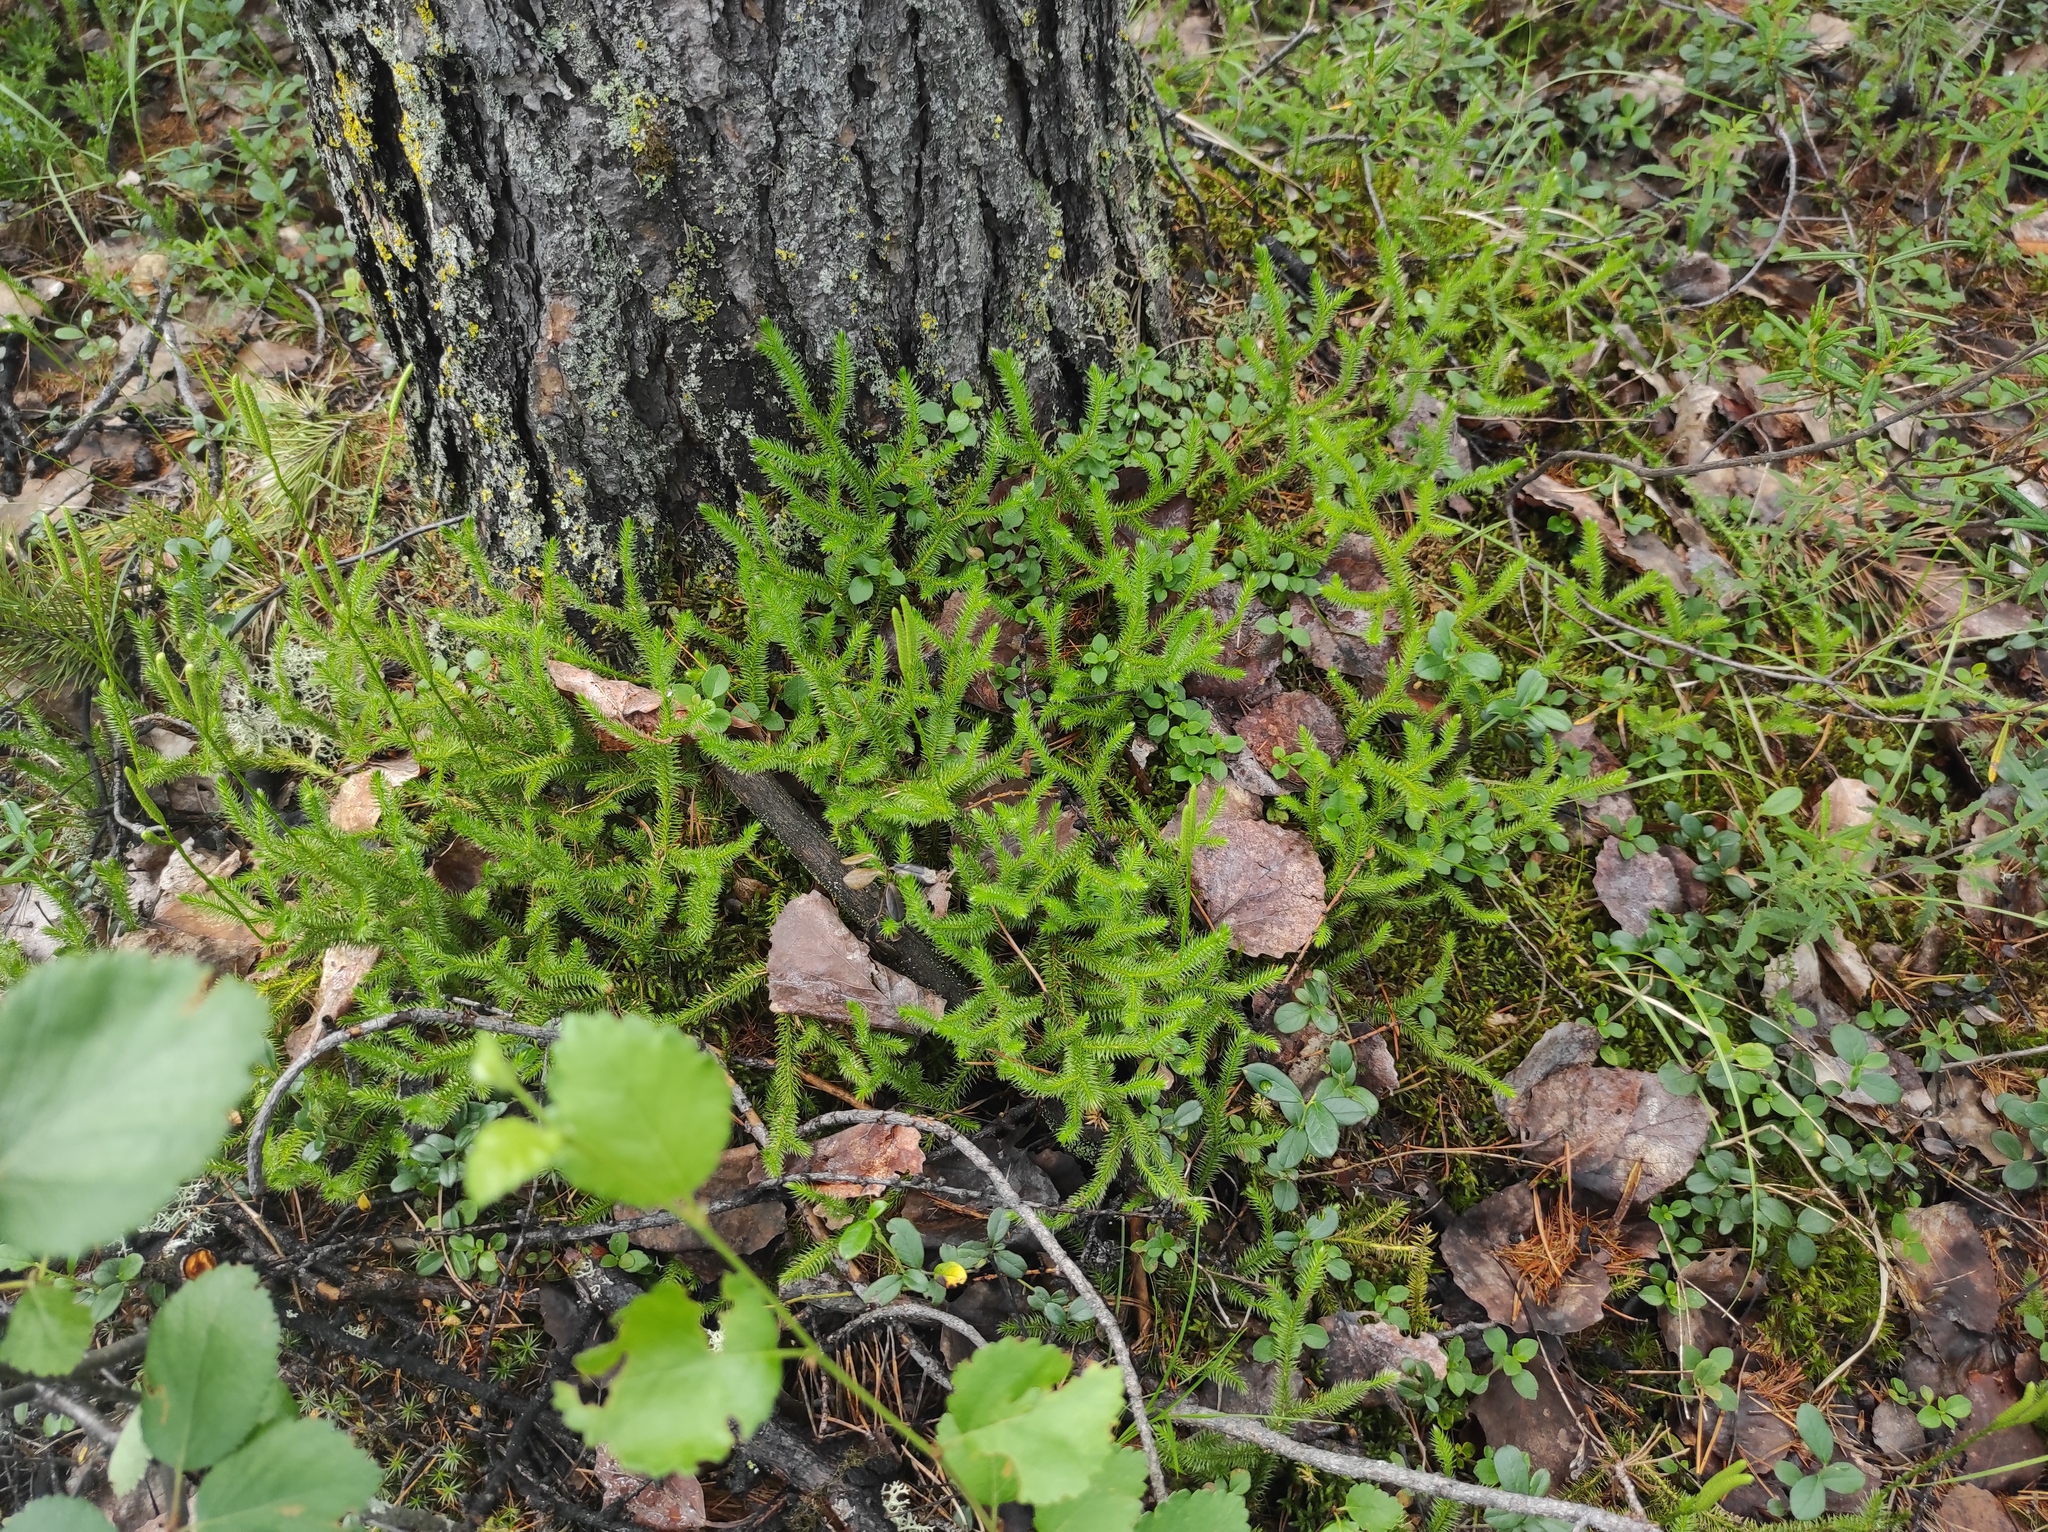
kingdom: Plantae
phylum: Tracheophyta
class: Lycopodiopsida
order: Lycopodiales
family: Lycopodiaceae
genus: Lycopodium
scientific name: Lycopodium clavatum
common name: Stag's-horn clubmoss
